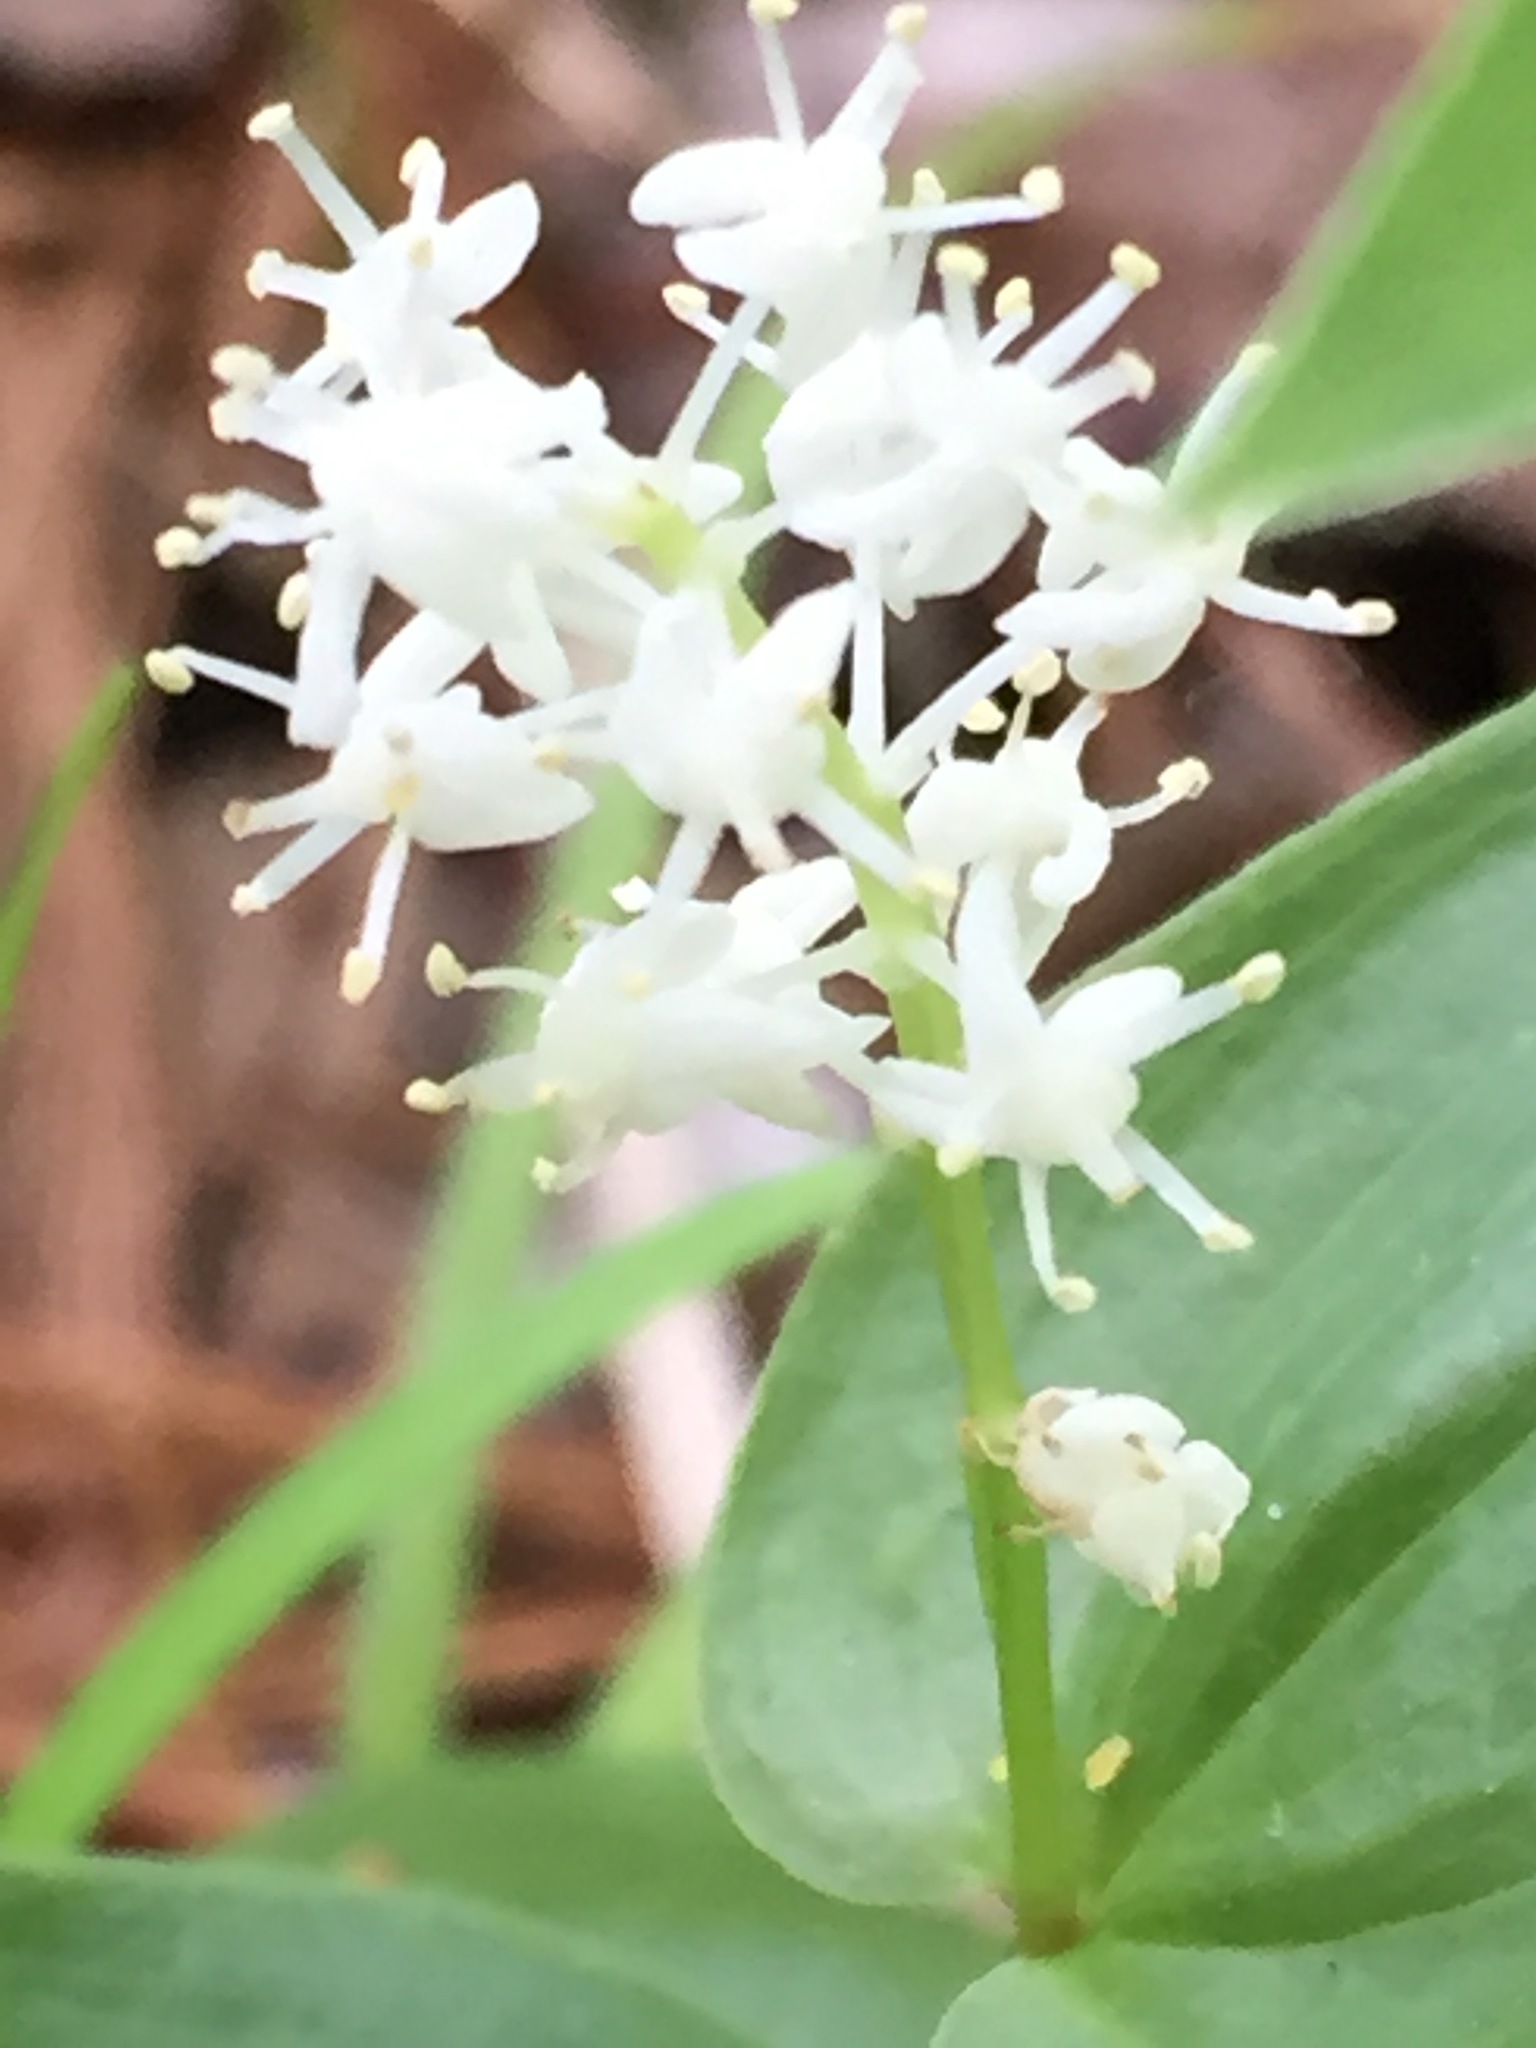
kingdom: Plantae
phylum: Tracheophyta
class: Liliopsida
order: Asparagales
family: Asparagaceae
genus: Maianthemum
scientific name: Maianthemum canadense
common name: False lily-of-the-valley
